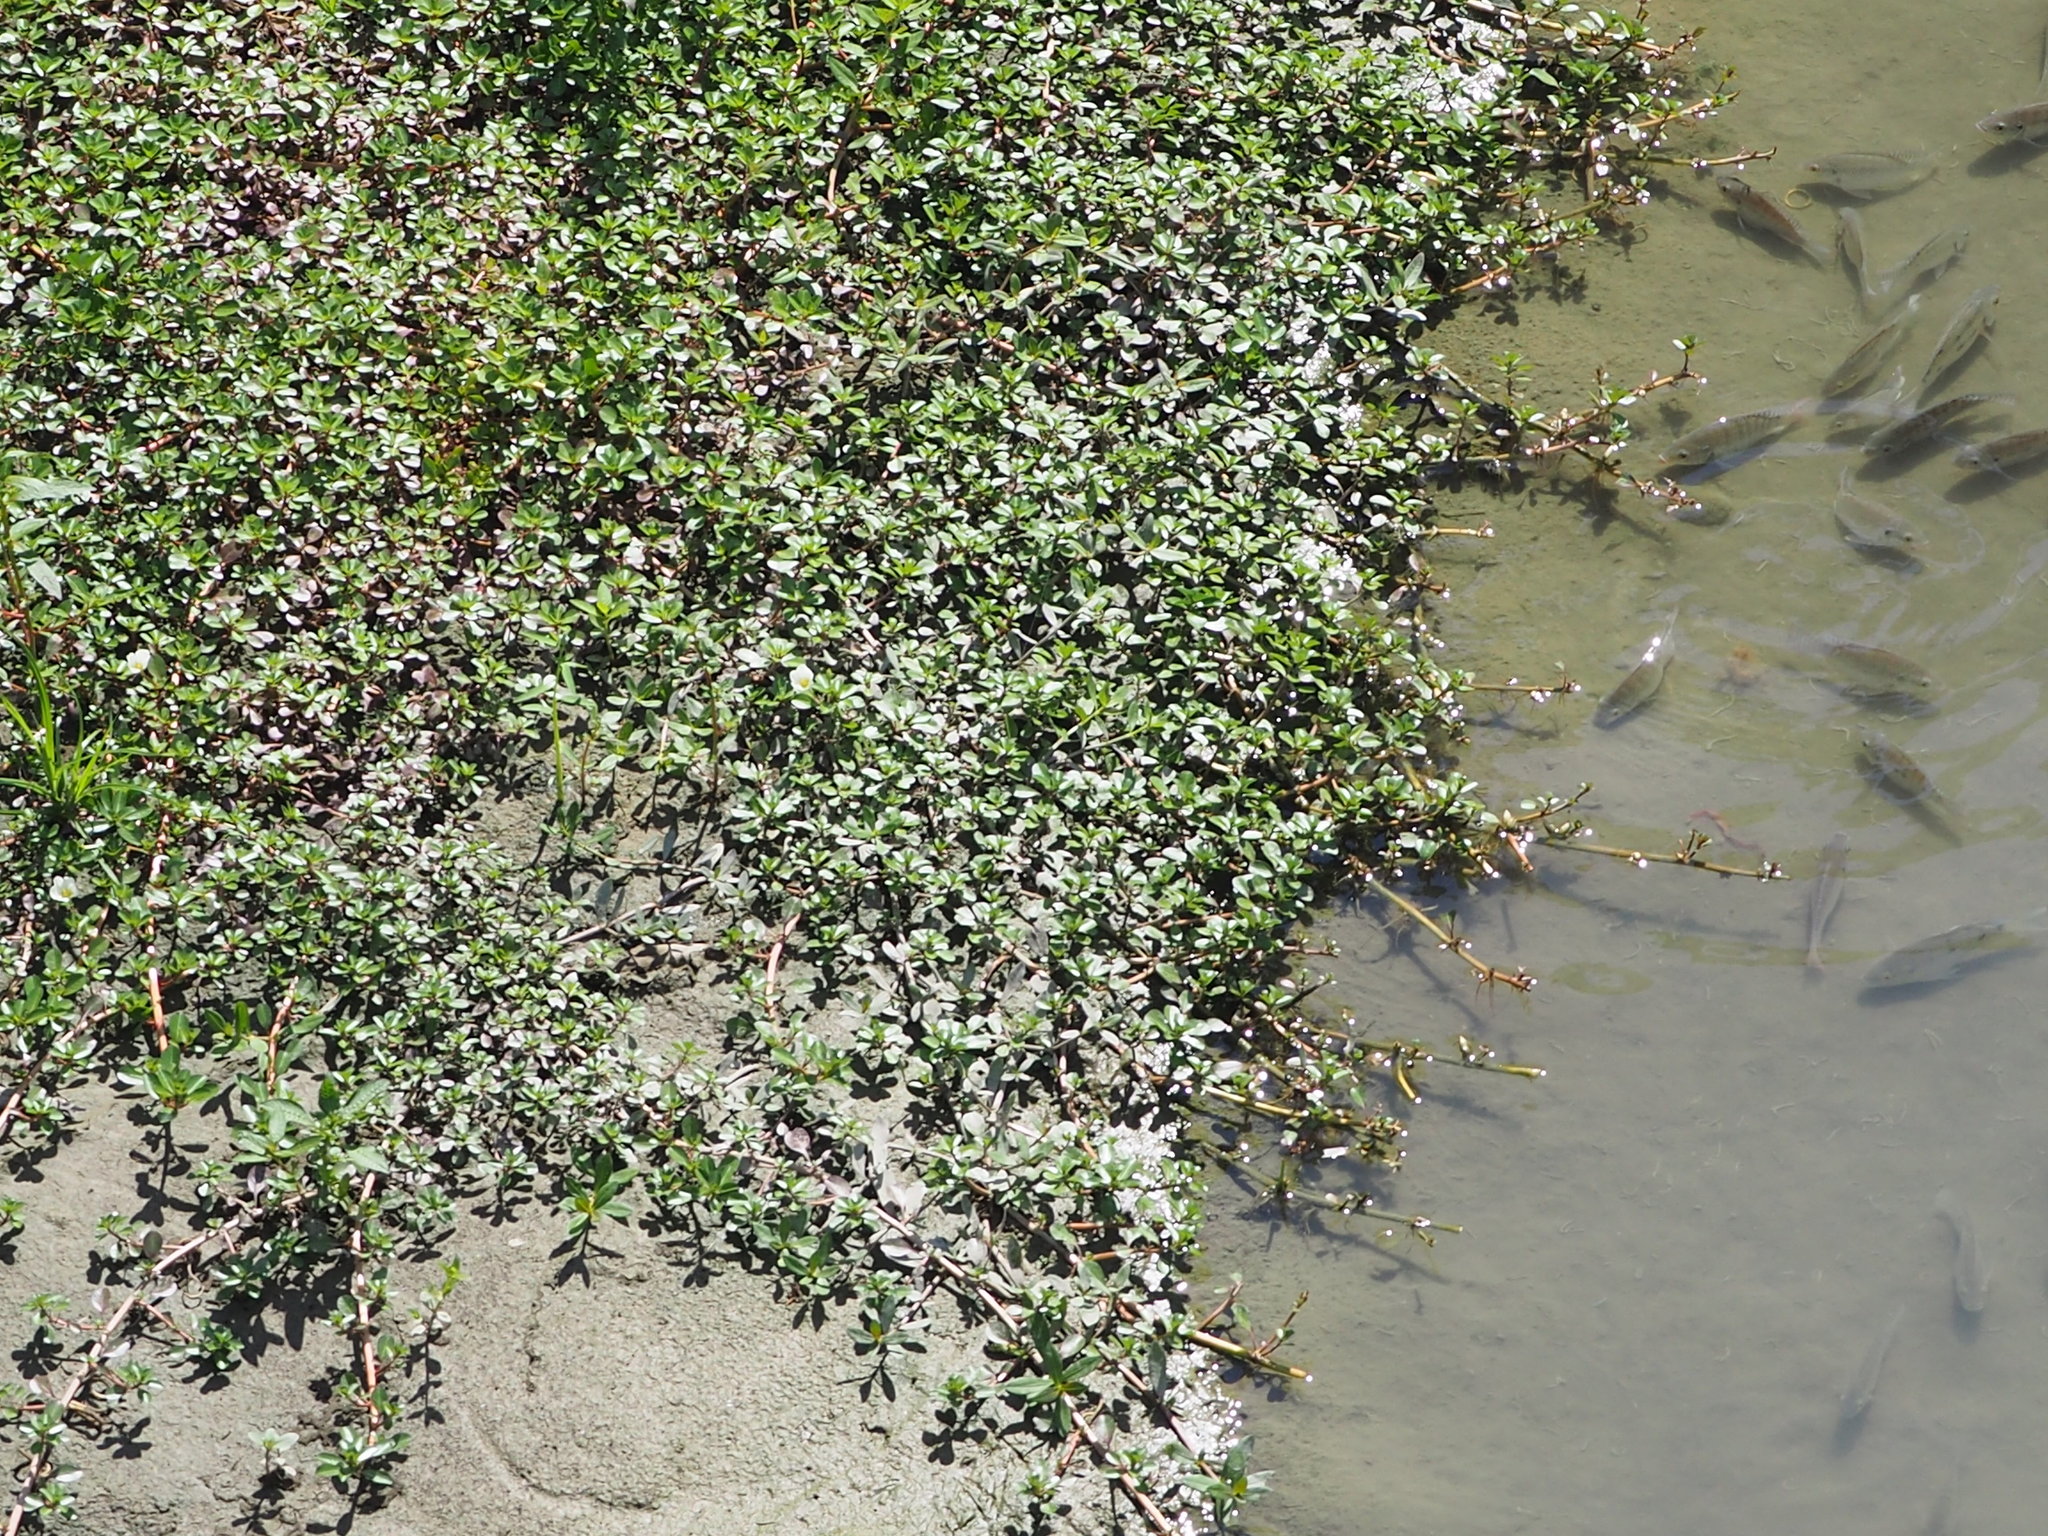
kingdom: Plantae
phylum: Tracheophyta
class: Magnoliopsida
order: Myrtales
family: Onagraceae
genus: Ludwigia
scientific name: Ludwigia adscendens
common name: Creeping water primrose
